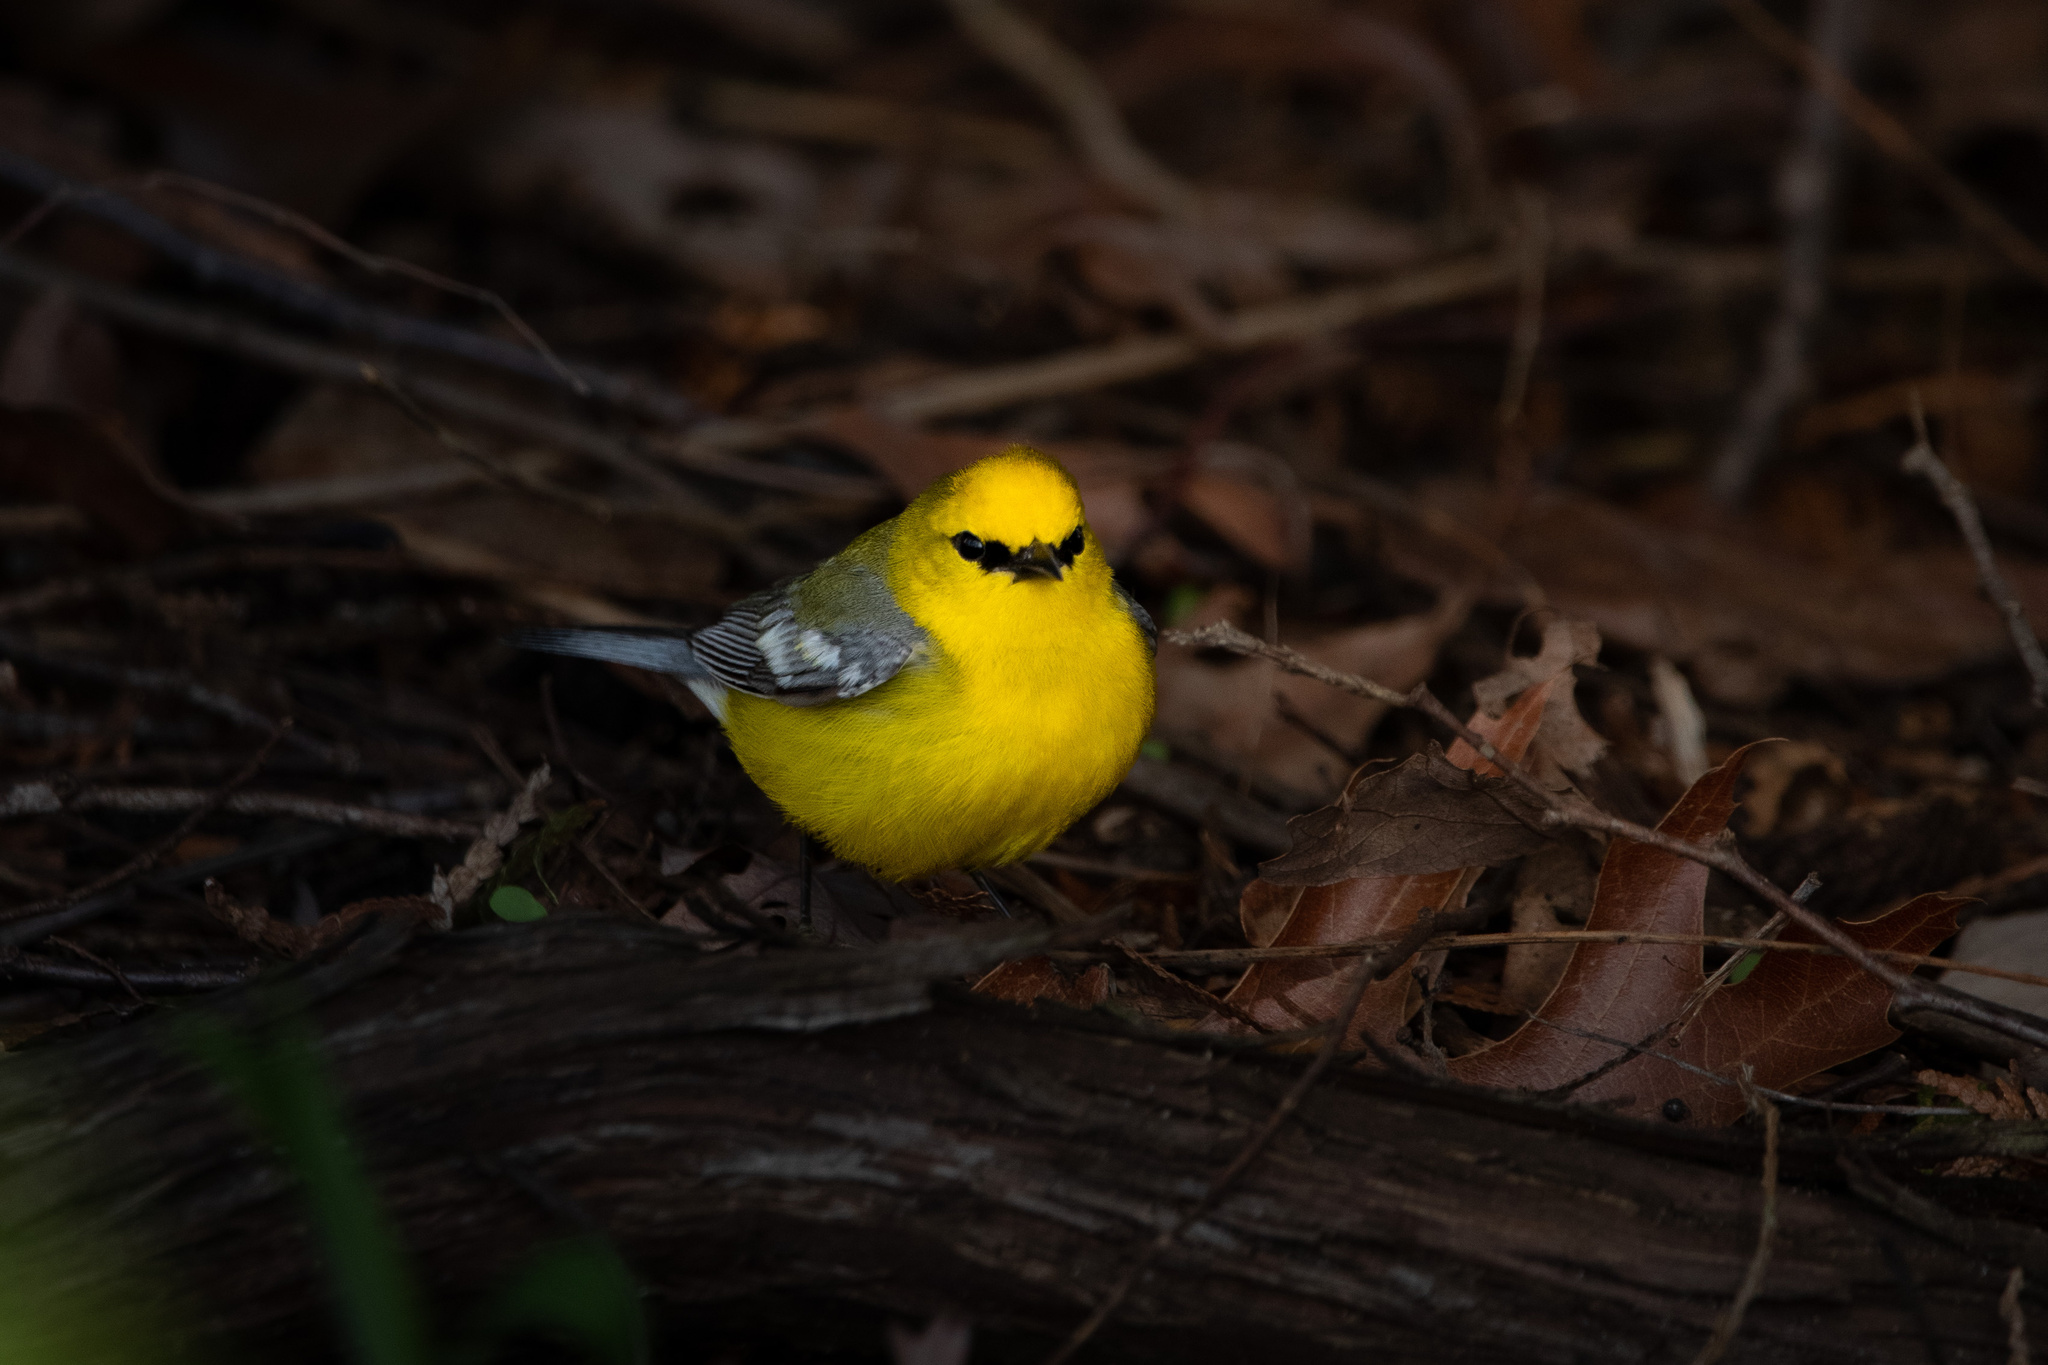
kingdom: Animalia
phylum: Chordata
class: Aves
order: Passeriformes
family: Parulidae
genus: Vermivora
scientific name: Vermivora cyanoptera
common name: Blue-winged warbler
